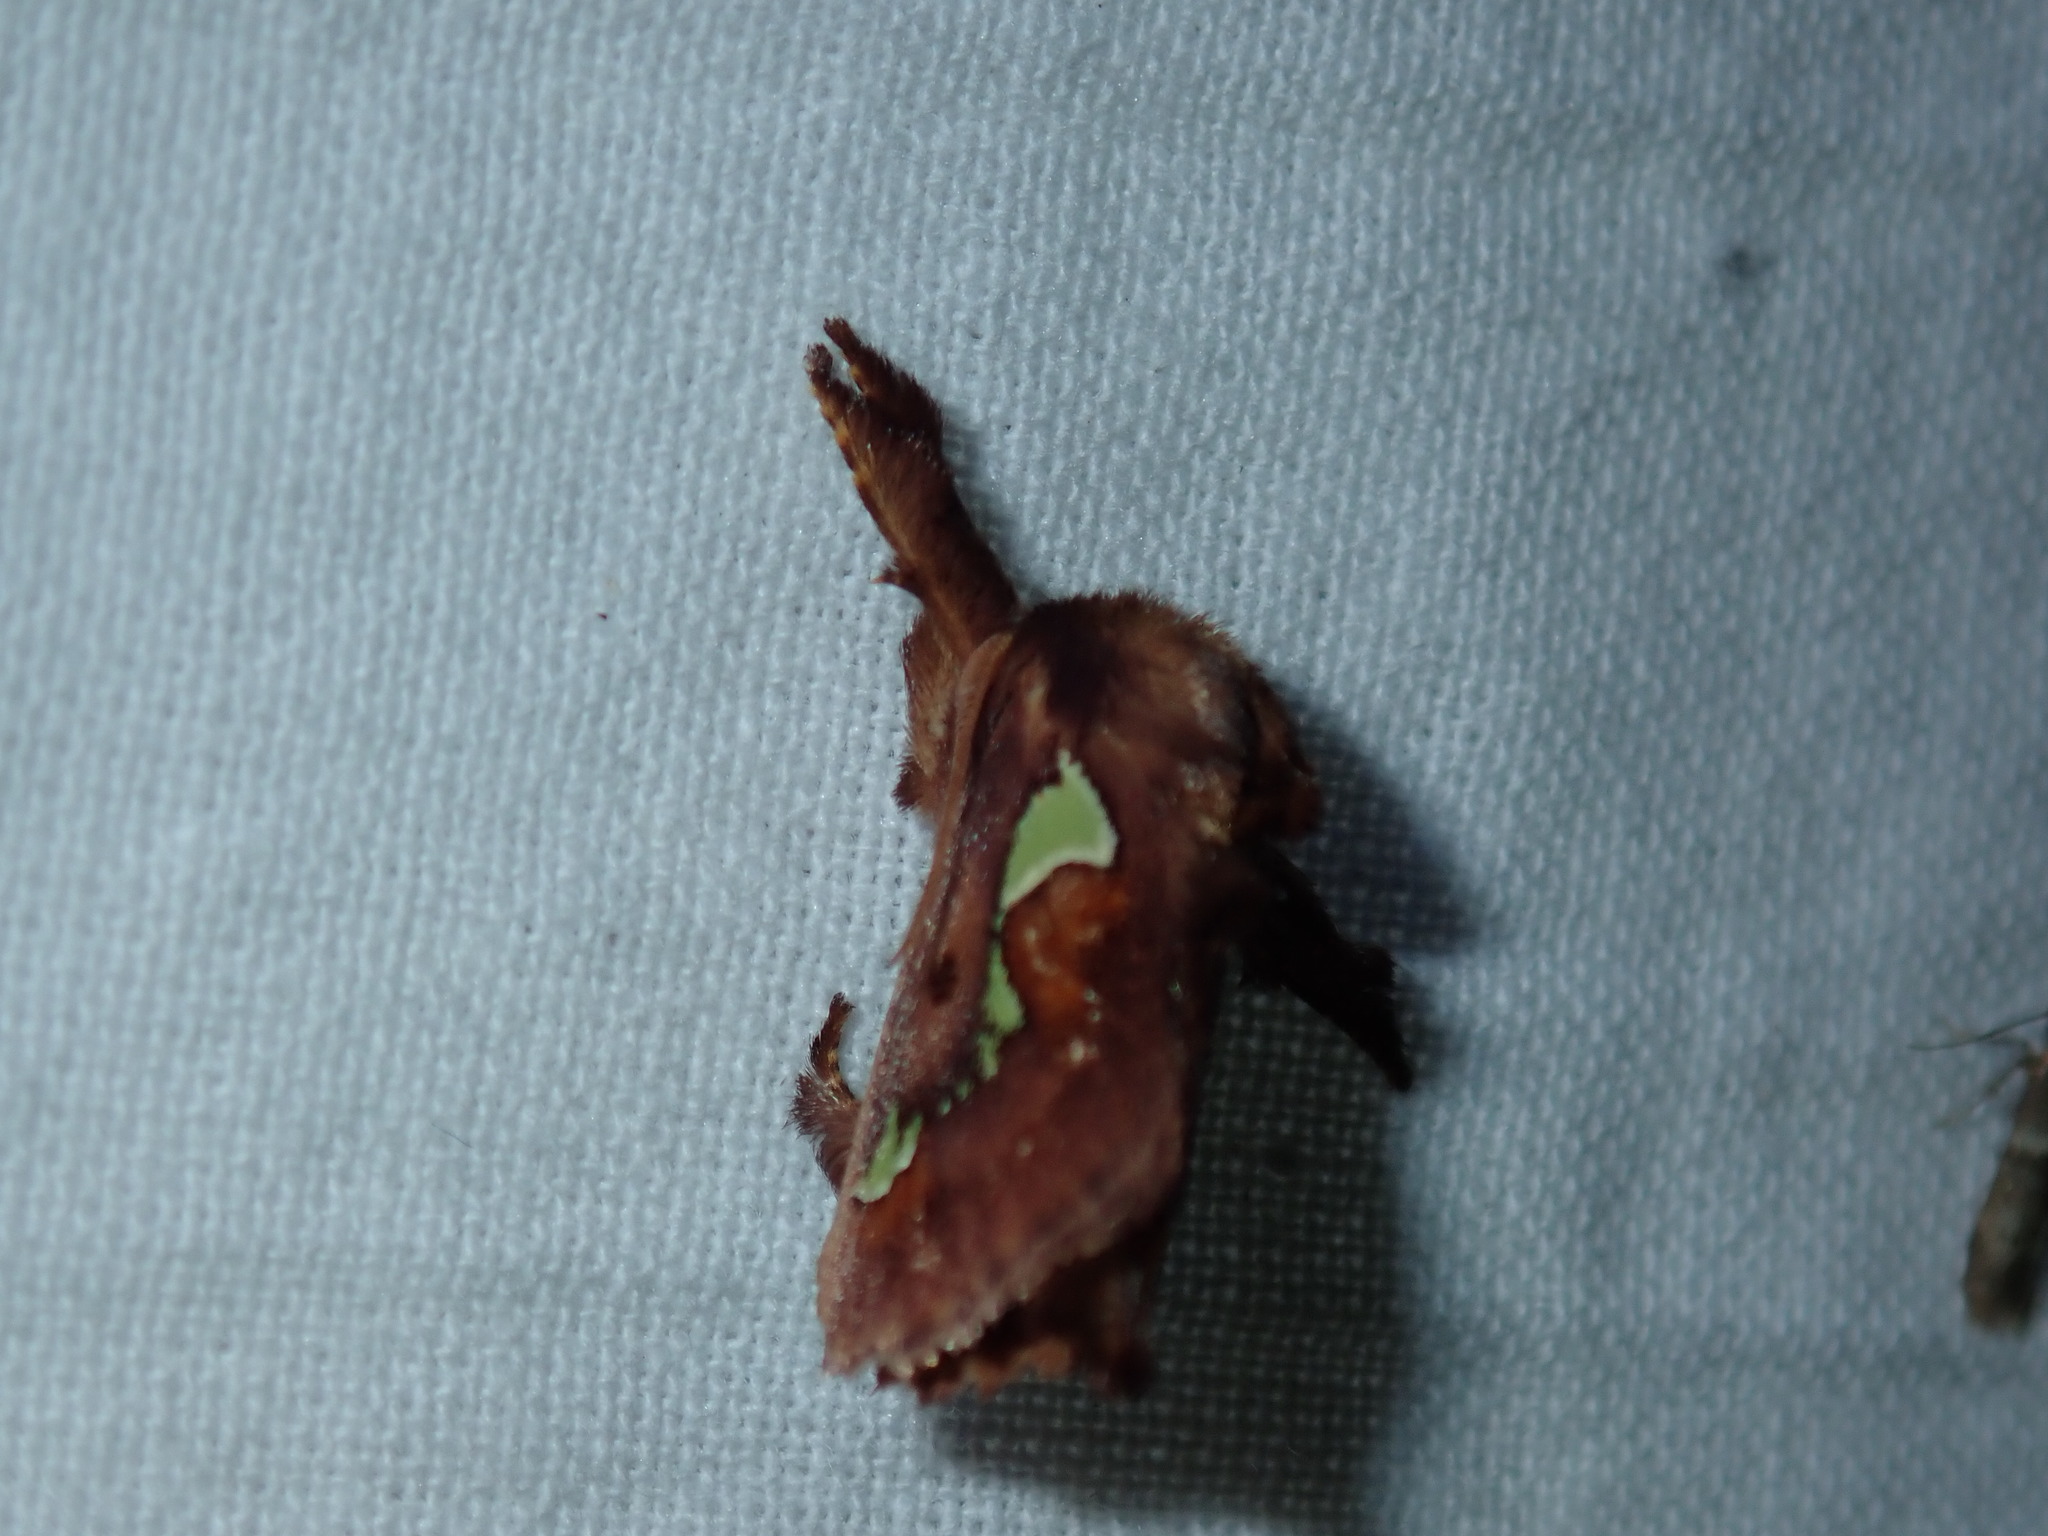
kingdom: Animalia
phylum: Arthropoda
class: Insecta
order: Lepidoptera
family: Limacodidae
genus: Euclea
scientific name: Euclea delphinii
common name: Spiny oak-slug moth
